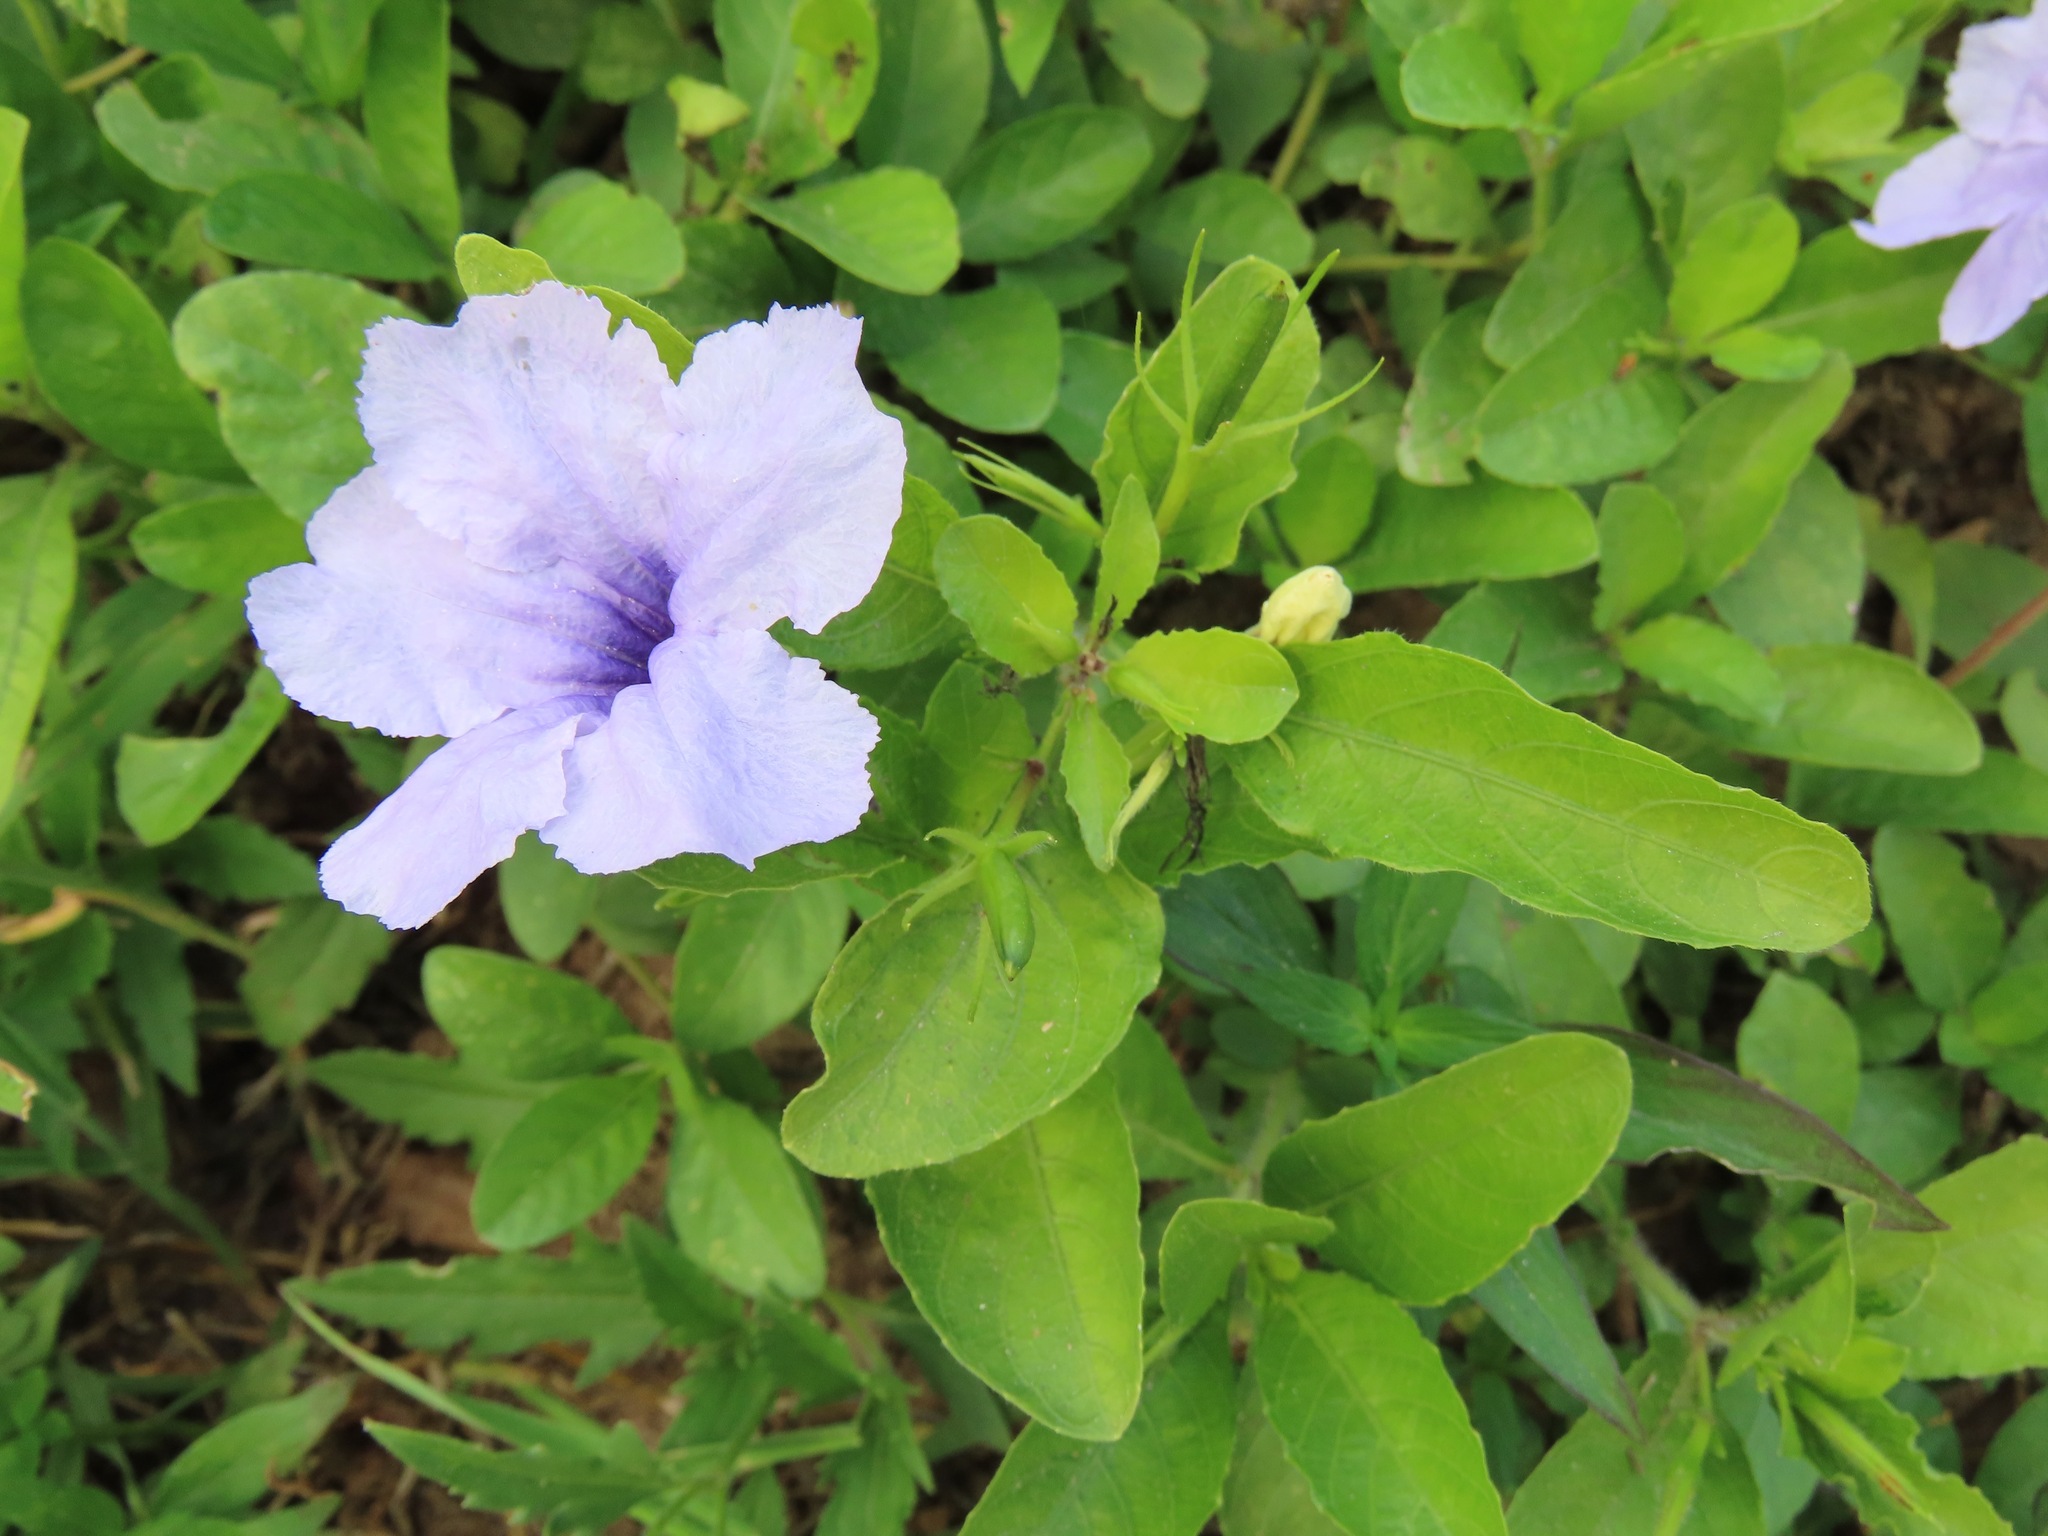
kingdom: Plantae
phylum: Tracheophyta
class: Magnoliopsida
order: Lamiales
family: Acanthaceae
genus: Ruellia
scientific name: Ruellia tuberosa
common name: Devil's bit
